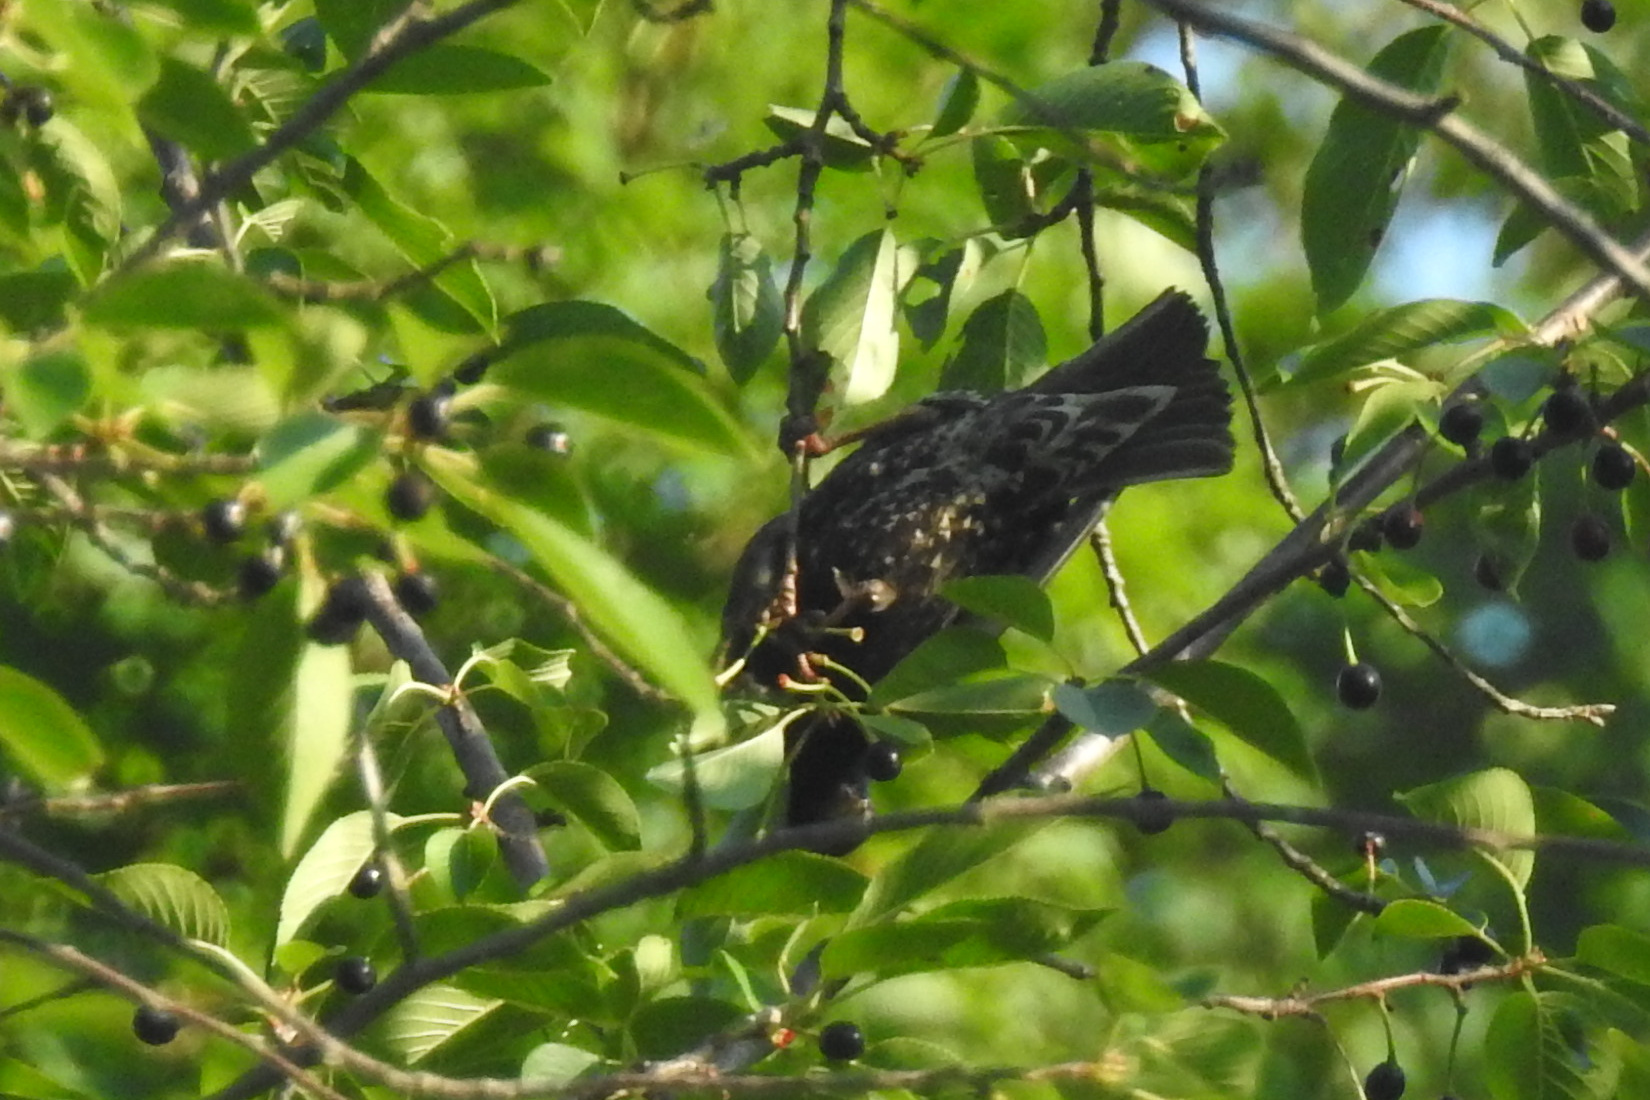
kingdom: Animalia
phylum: Chordata
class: Aves
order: Passeriformes
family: Sturnidae
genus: Sturnus
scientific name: Sturnus vulgaris
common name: Common starling
